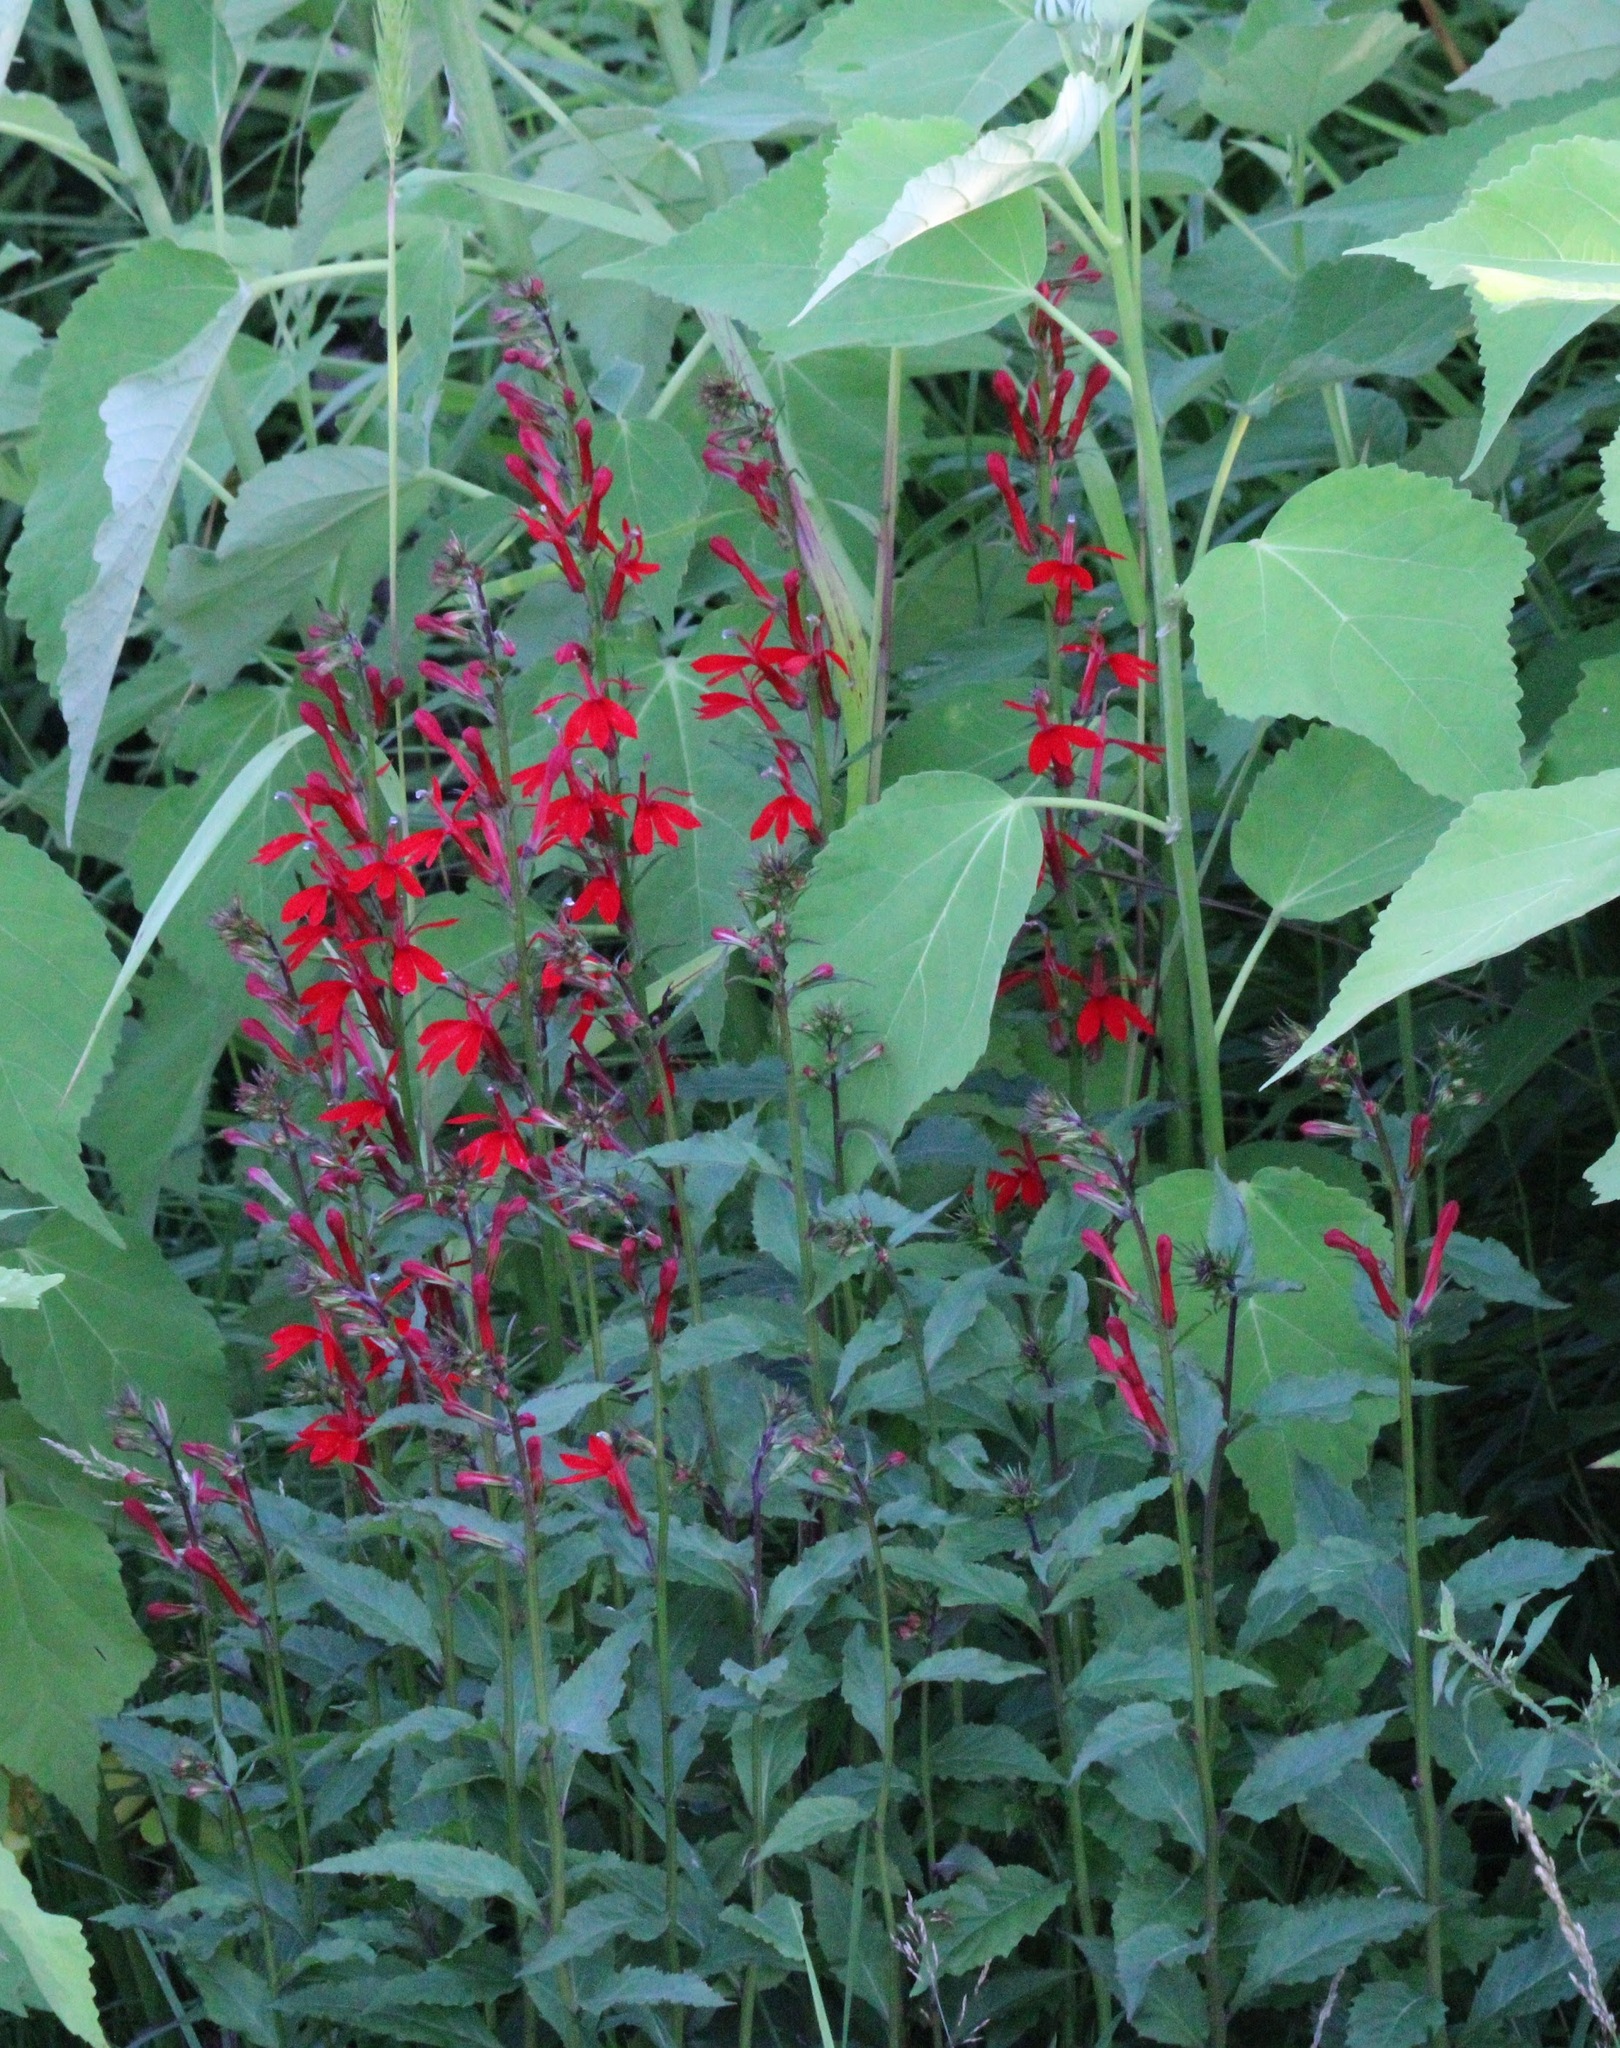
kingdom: Plantae
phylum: Tracheophyta
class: Magnoliopsida
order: Asterales
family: Campanulaceae
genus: Lobelia
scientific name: Lobelia cardinalis
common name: Cardinal flower
